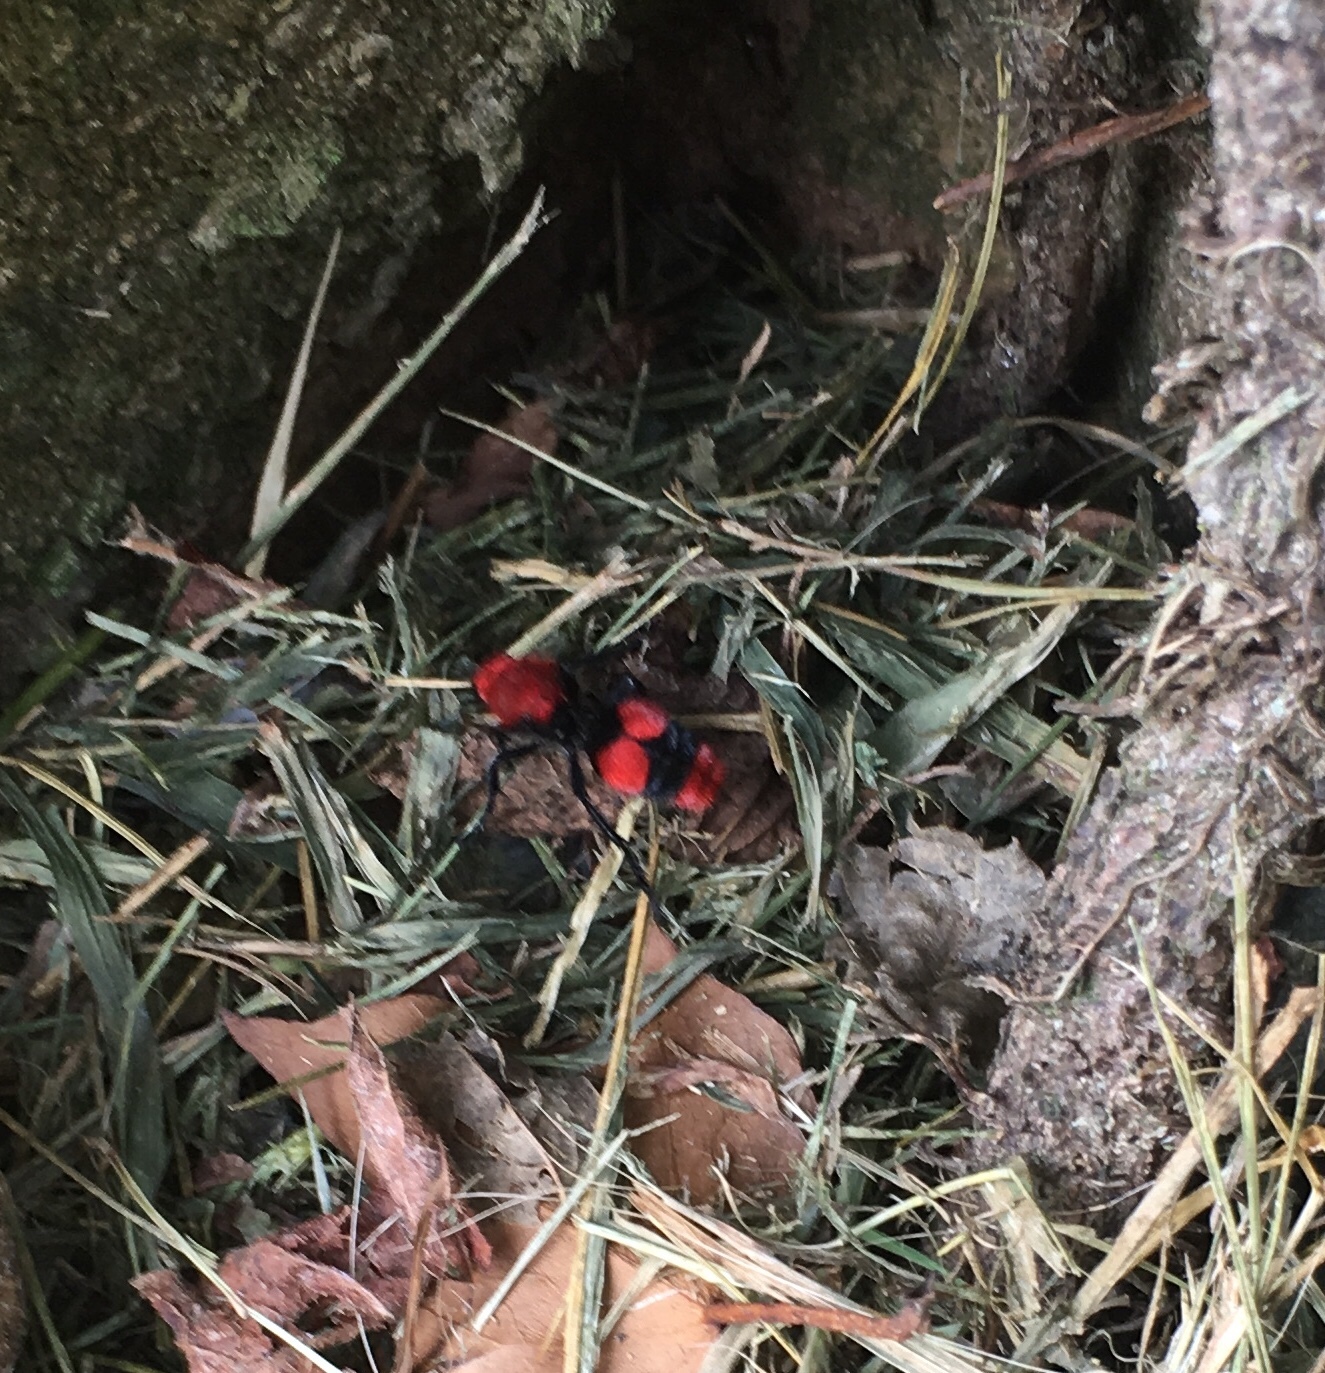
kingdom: Animalia
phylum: Arthropoda
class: Insecta
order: Hymenoptera
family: Mutillidae
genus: Dasymutilla
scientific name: Dasymutilla occidentalis
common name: Common eastern velvet ant
